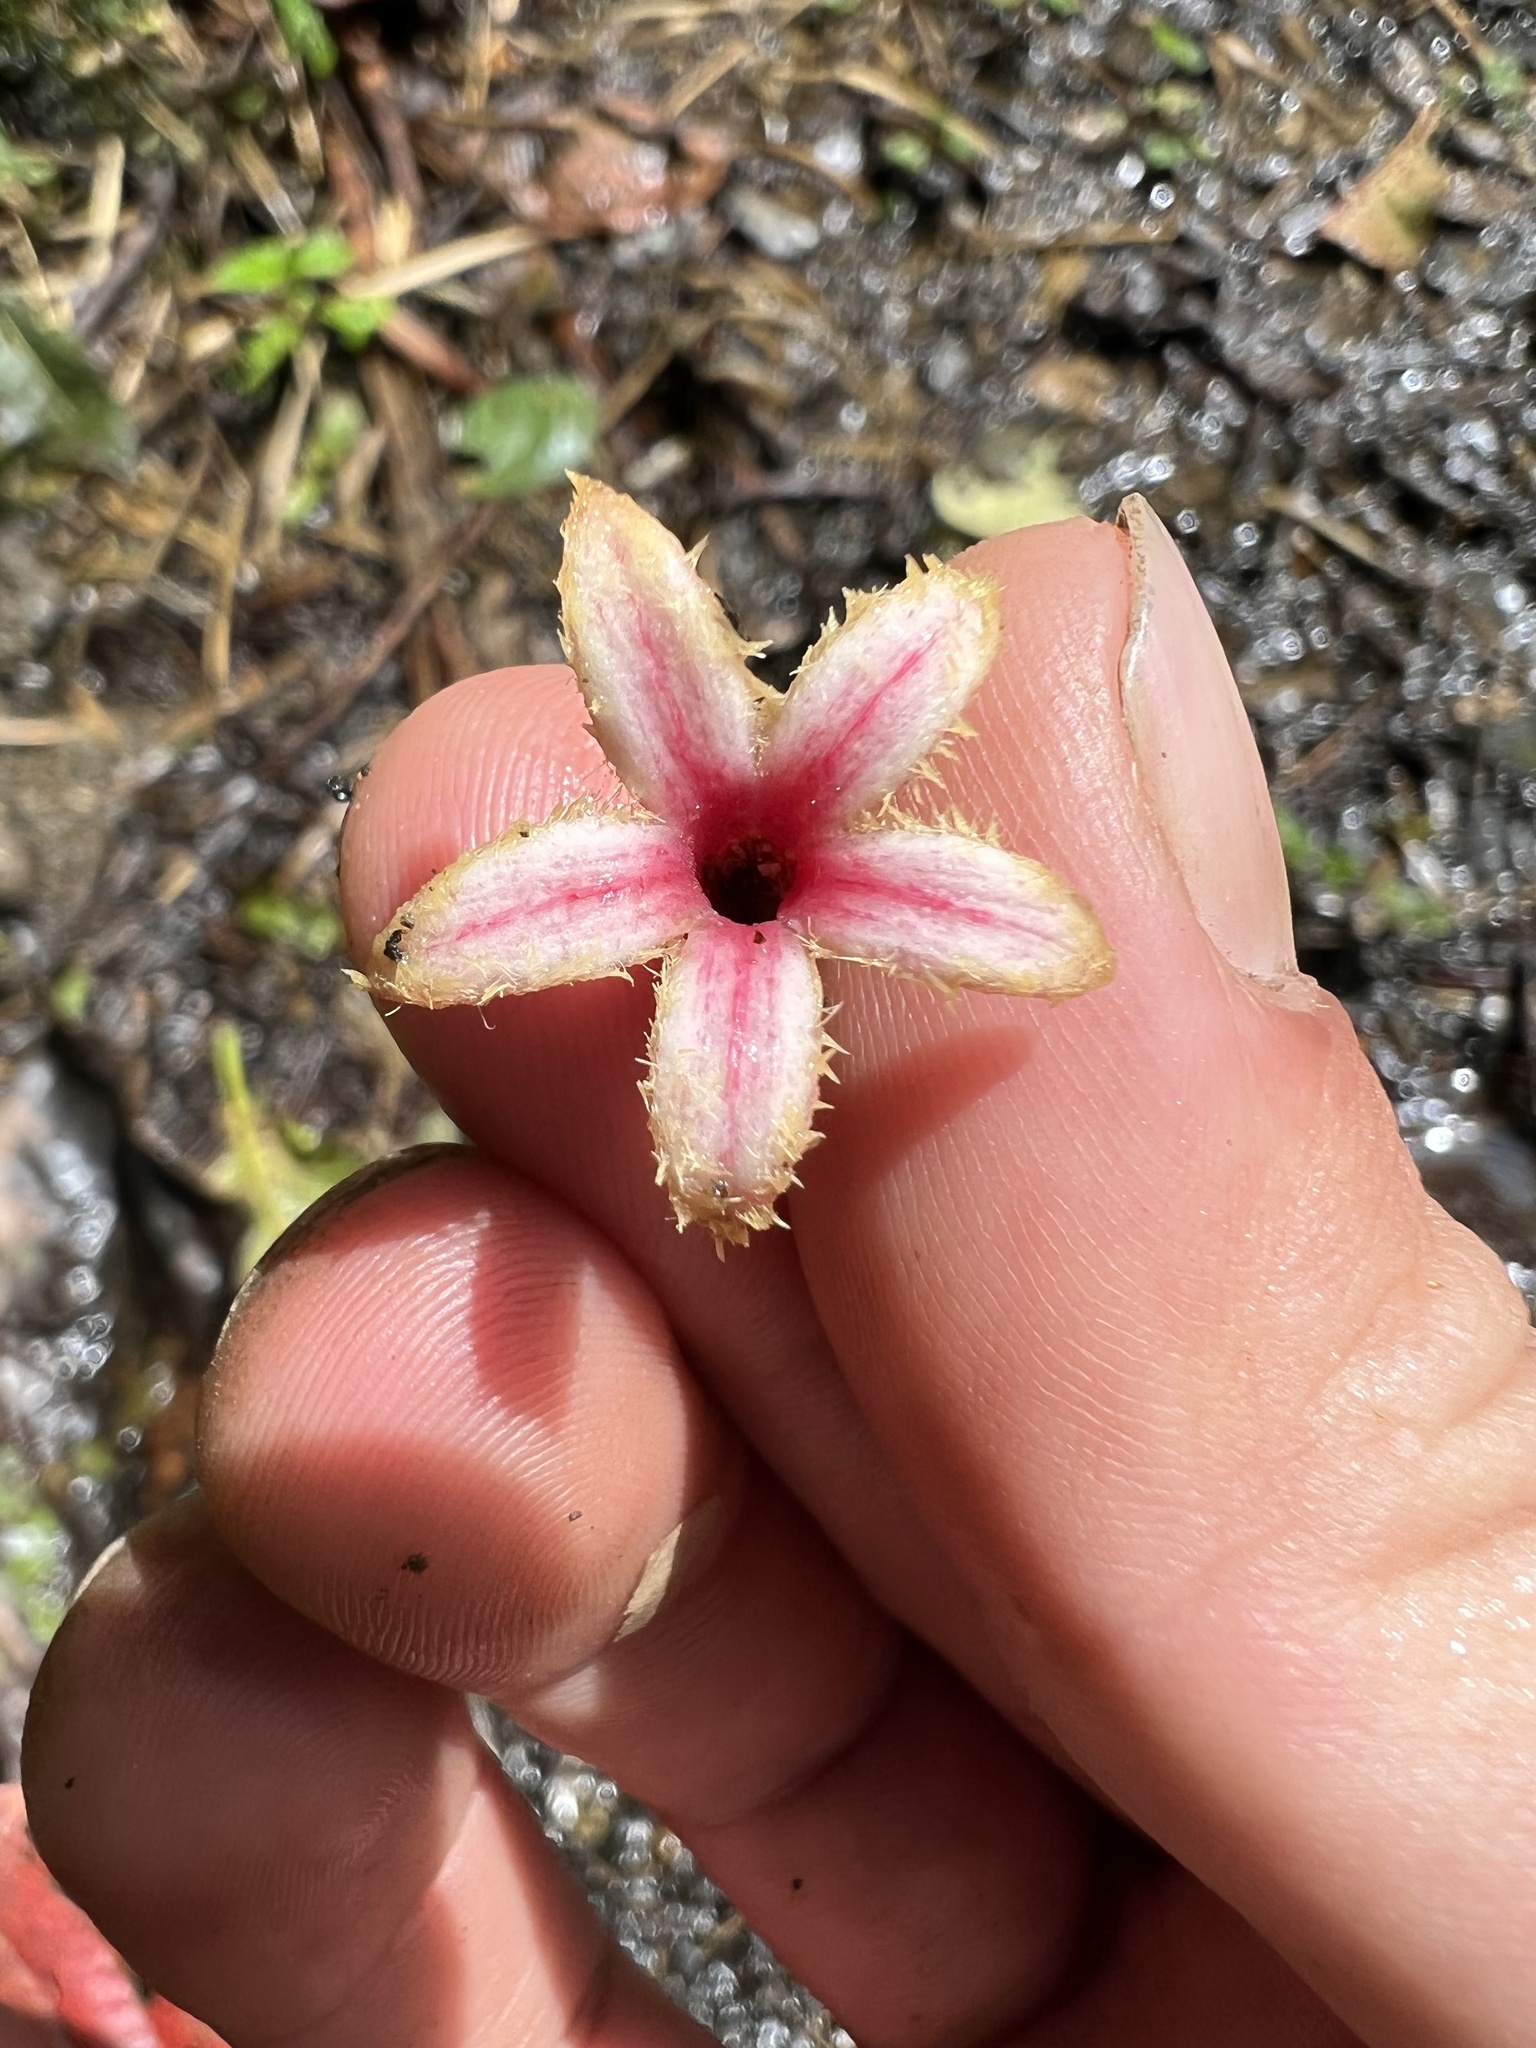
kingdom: Plantae
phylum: Tracheophyta
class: Magnoliopsida
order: Gentianales
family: Rubiaceae
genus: Cinchona
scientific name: Cinchona pubescens
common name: Quinine
